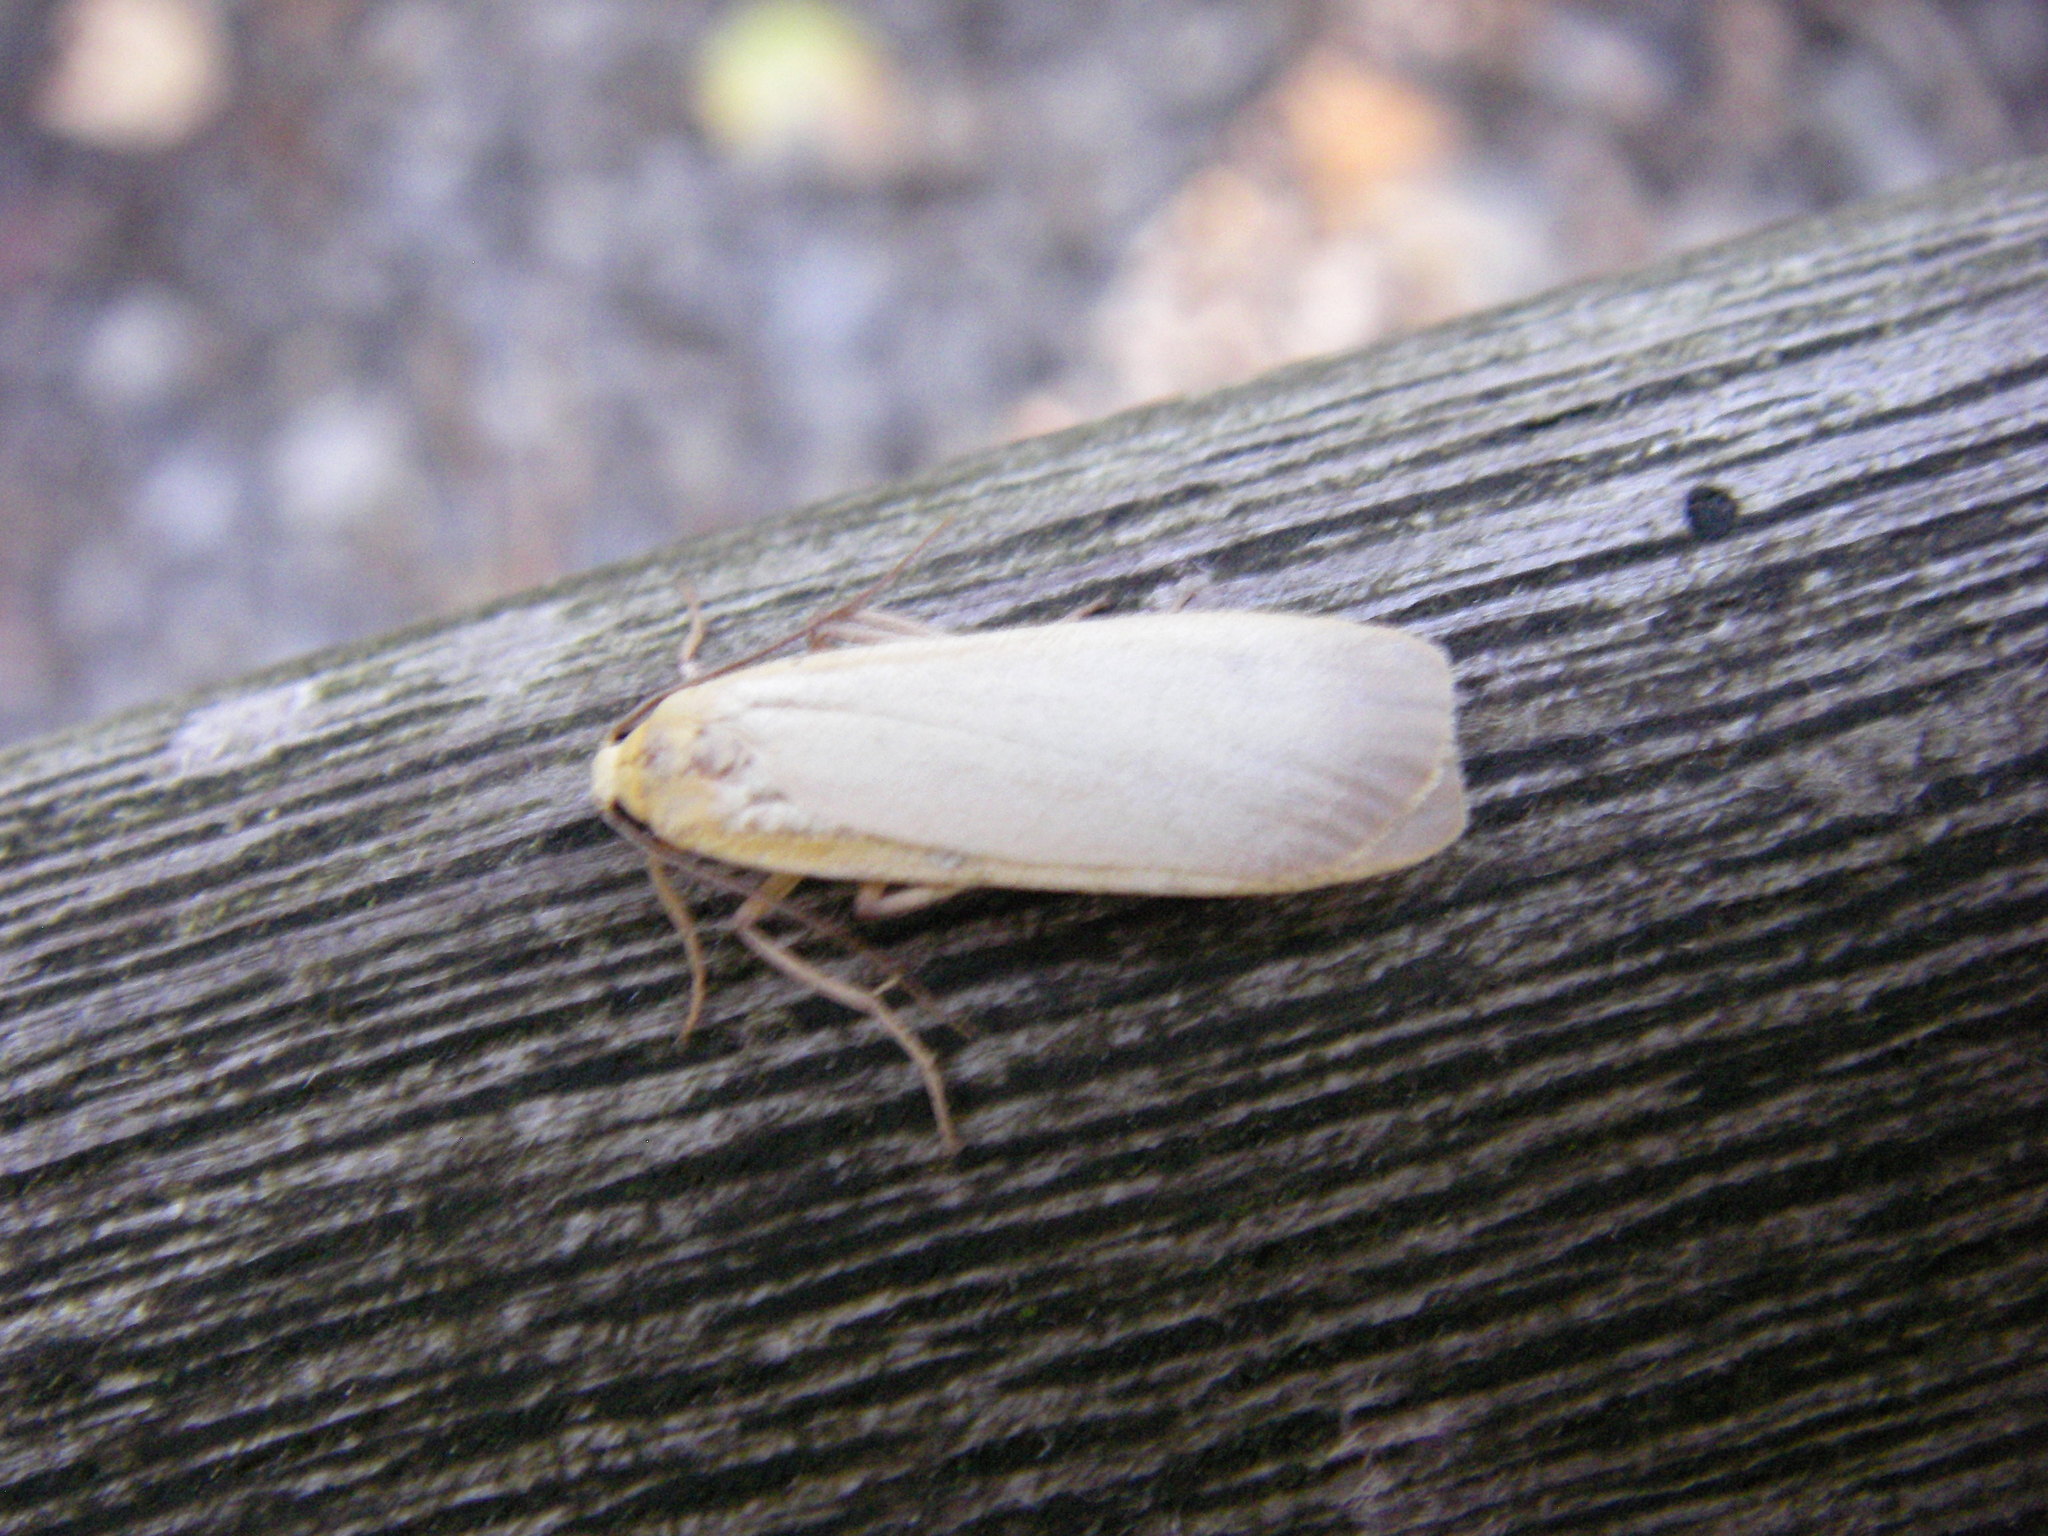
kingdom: Animalia
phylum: Arthropoda
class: Insecta
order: Lepidoptera
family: Erebidae
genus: Collita
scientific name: Collita griseola
